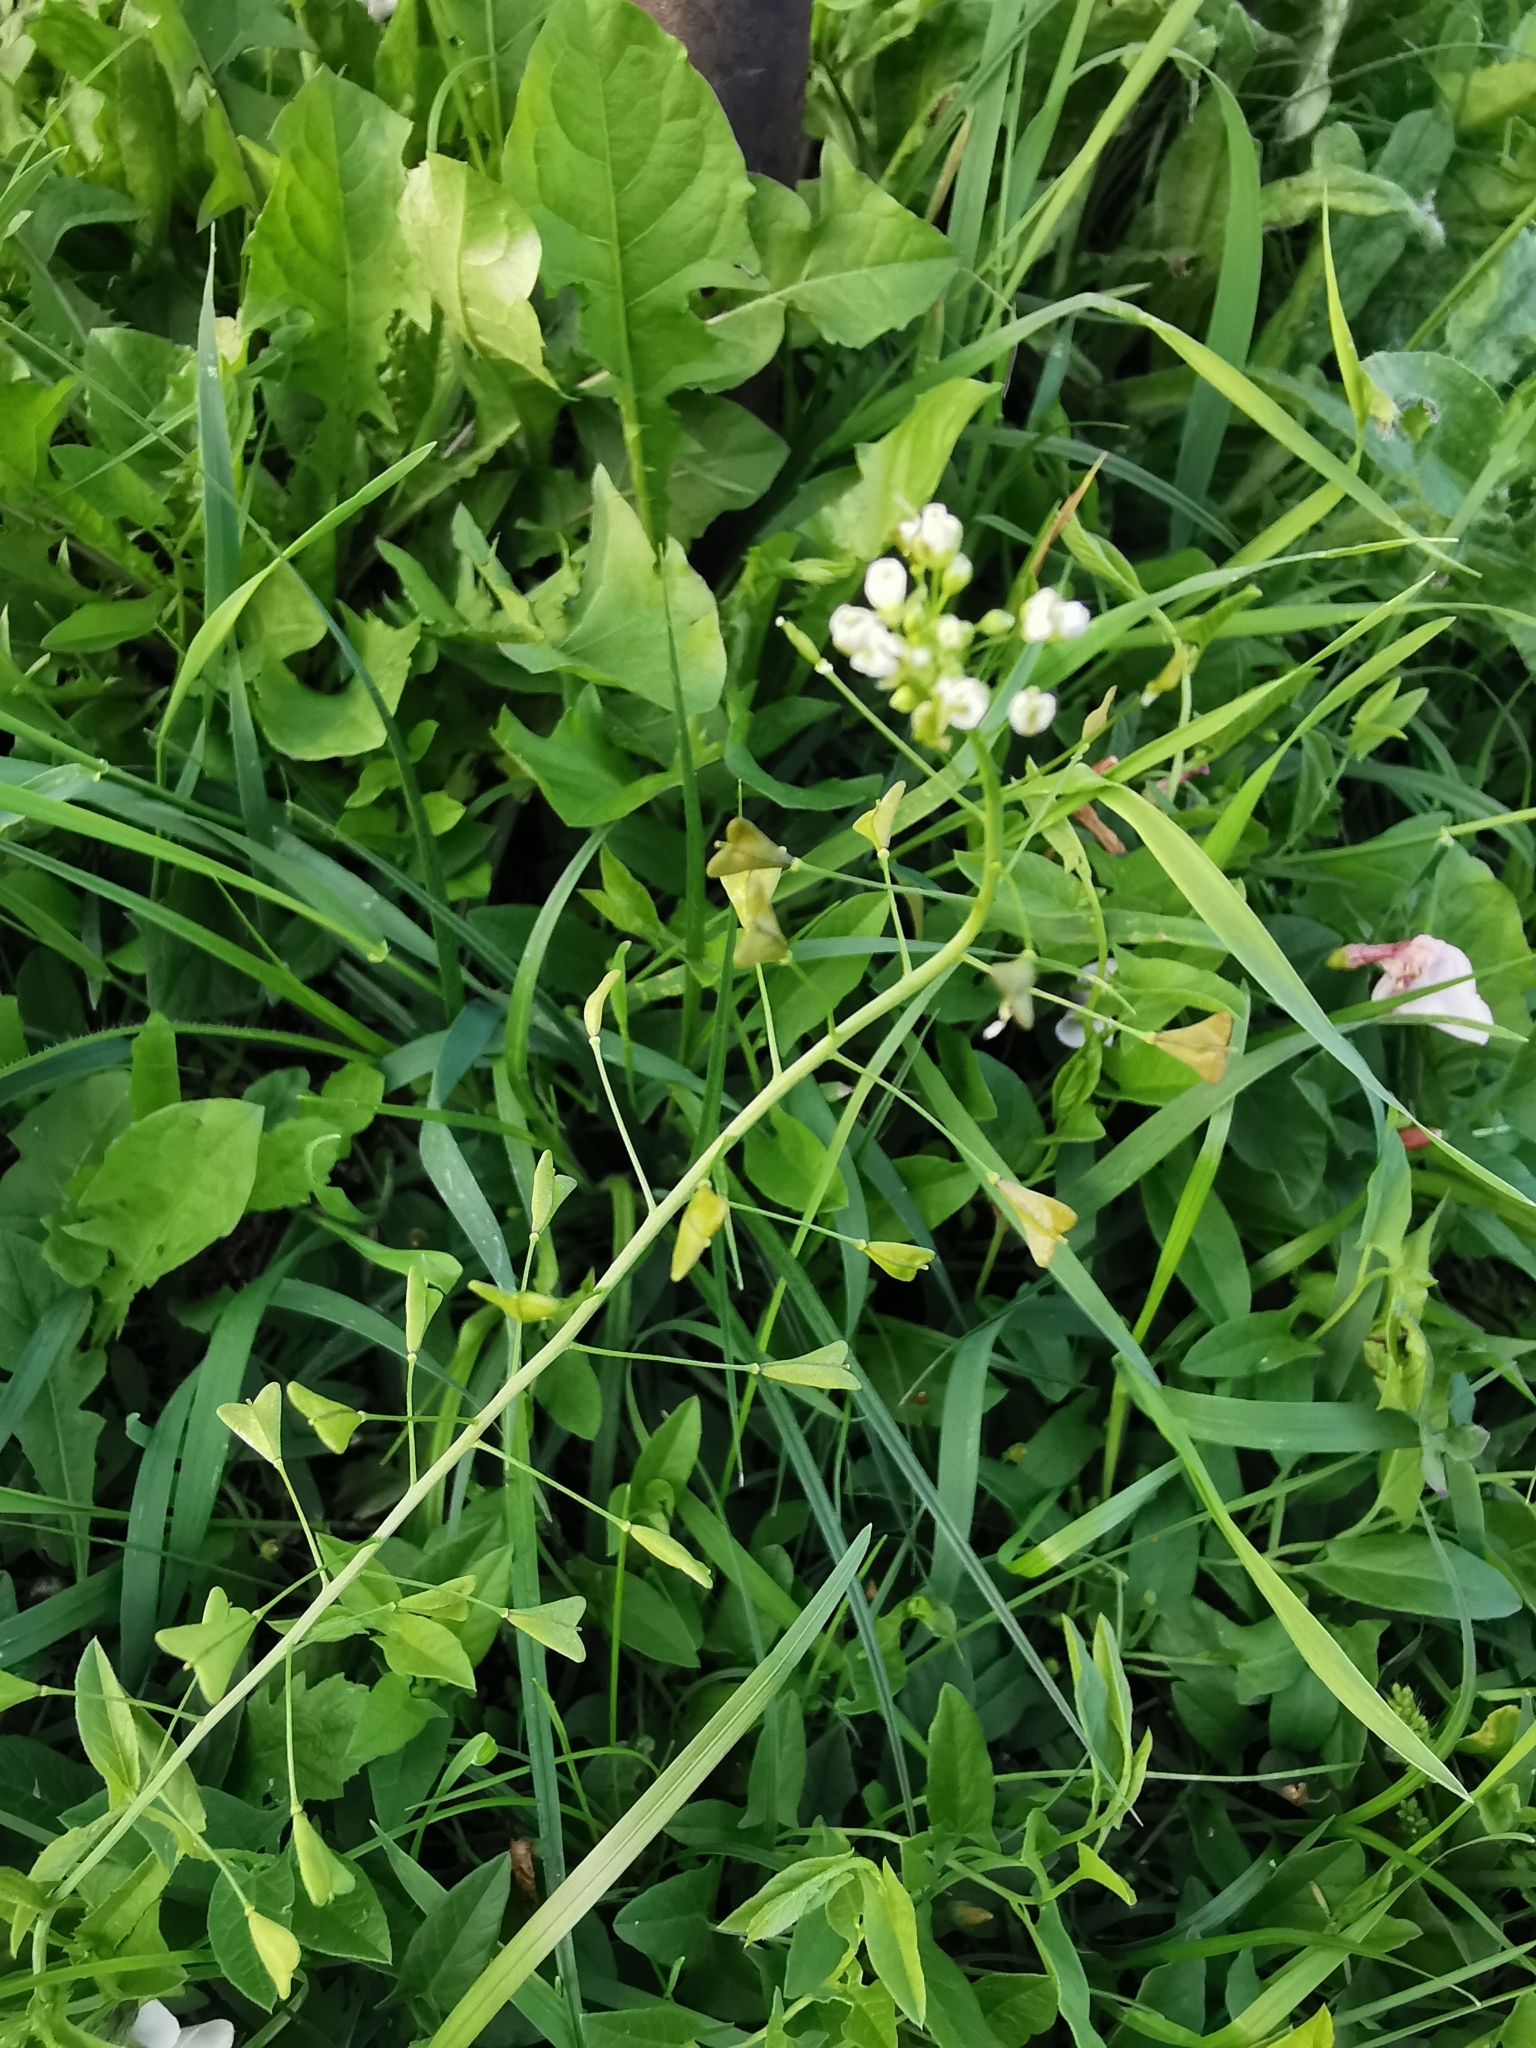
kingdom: Plantae
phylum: Tracheophyta
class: Magnoliopsida
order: Brassicales
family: Brassicaceae
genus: Capsella
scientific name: Capsella bursa-pastoris
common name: Shepherd's purse
